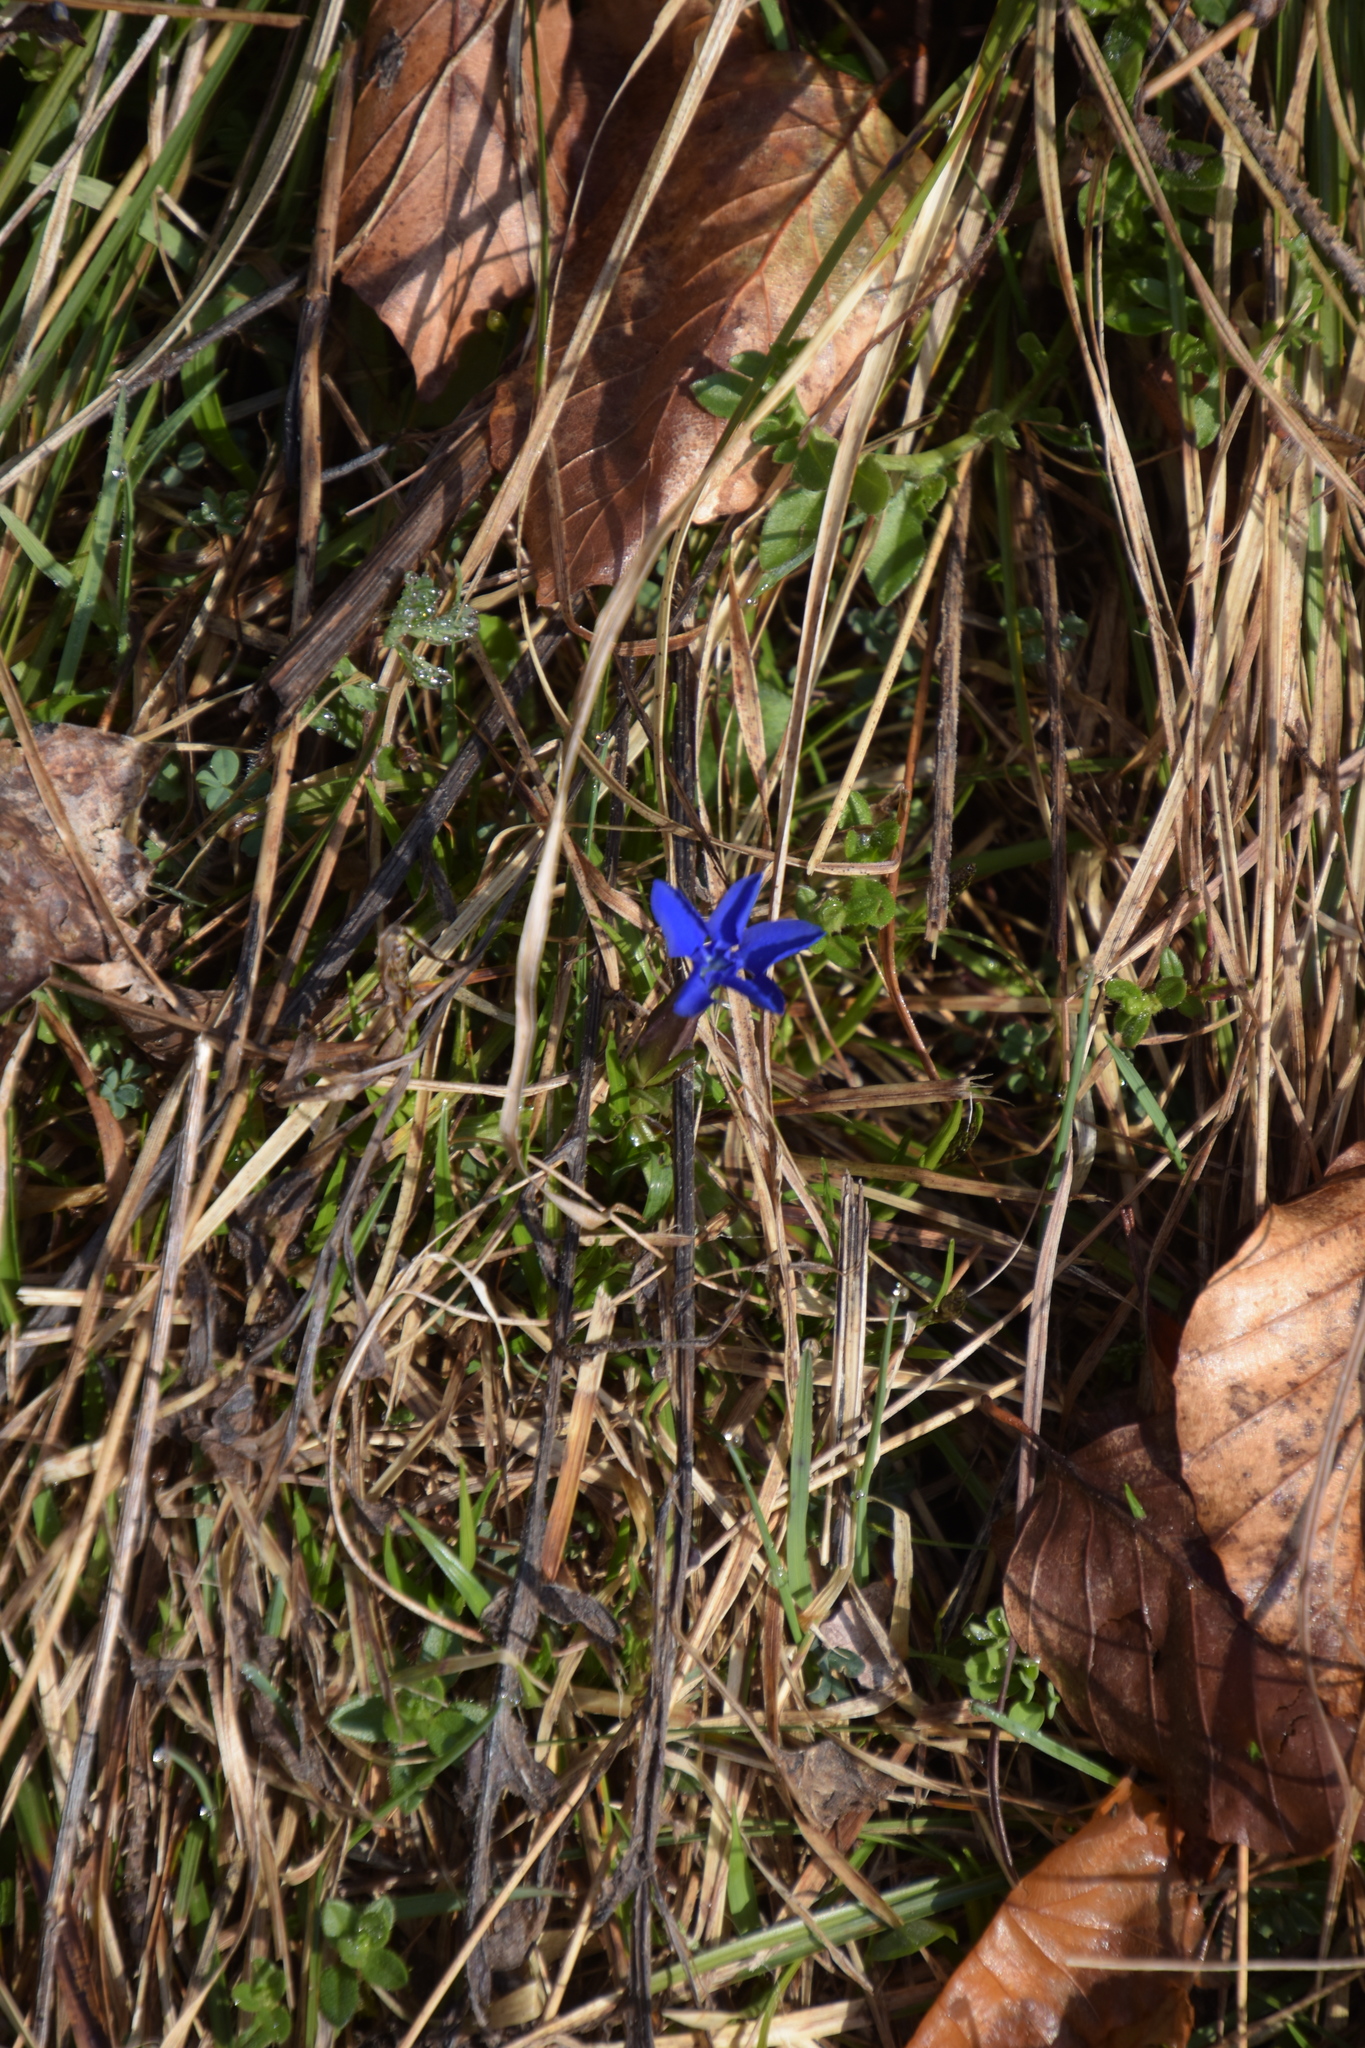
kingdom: Plantae
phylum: Tracheophyta
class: Magnoliopsida
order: Gentianales
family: Gentianaceae
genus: Gentiana
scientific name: Gentiana verna
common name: Spring gentian
